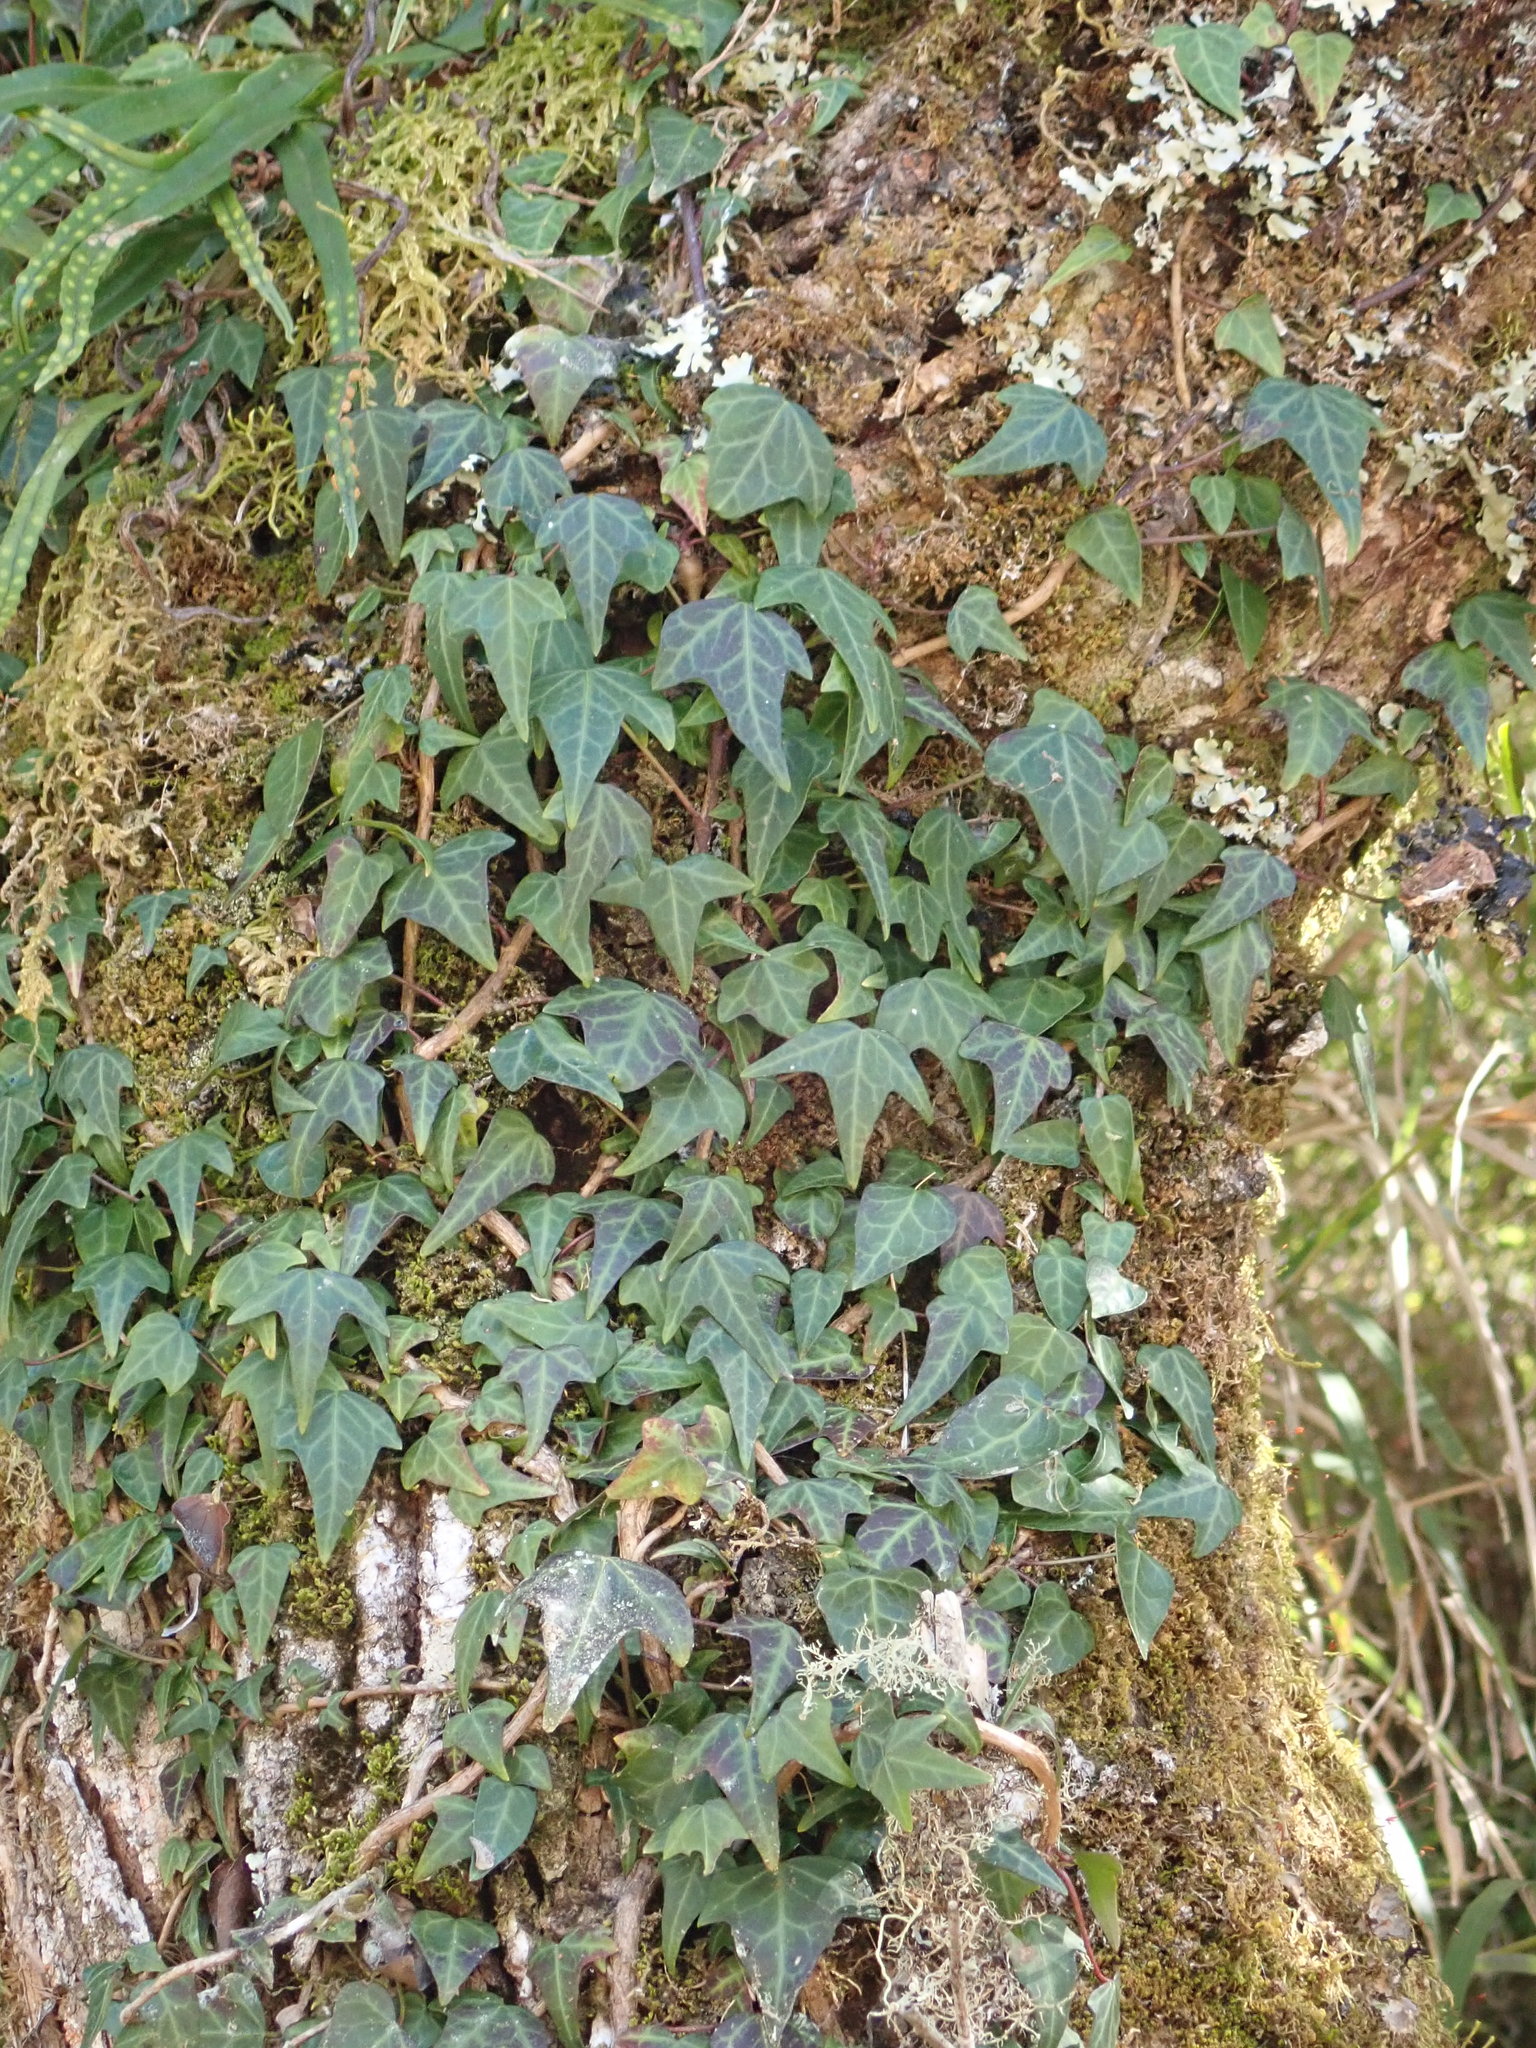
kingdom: Plantae
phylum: Tracheophyta
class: Magnoliopsida
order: Apiales
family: Araliaceae
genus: Hedera
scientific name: Hedera rhombea
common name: Japanese ivy
